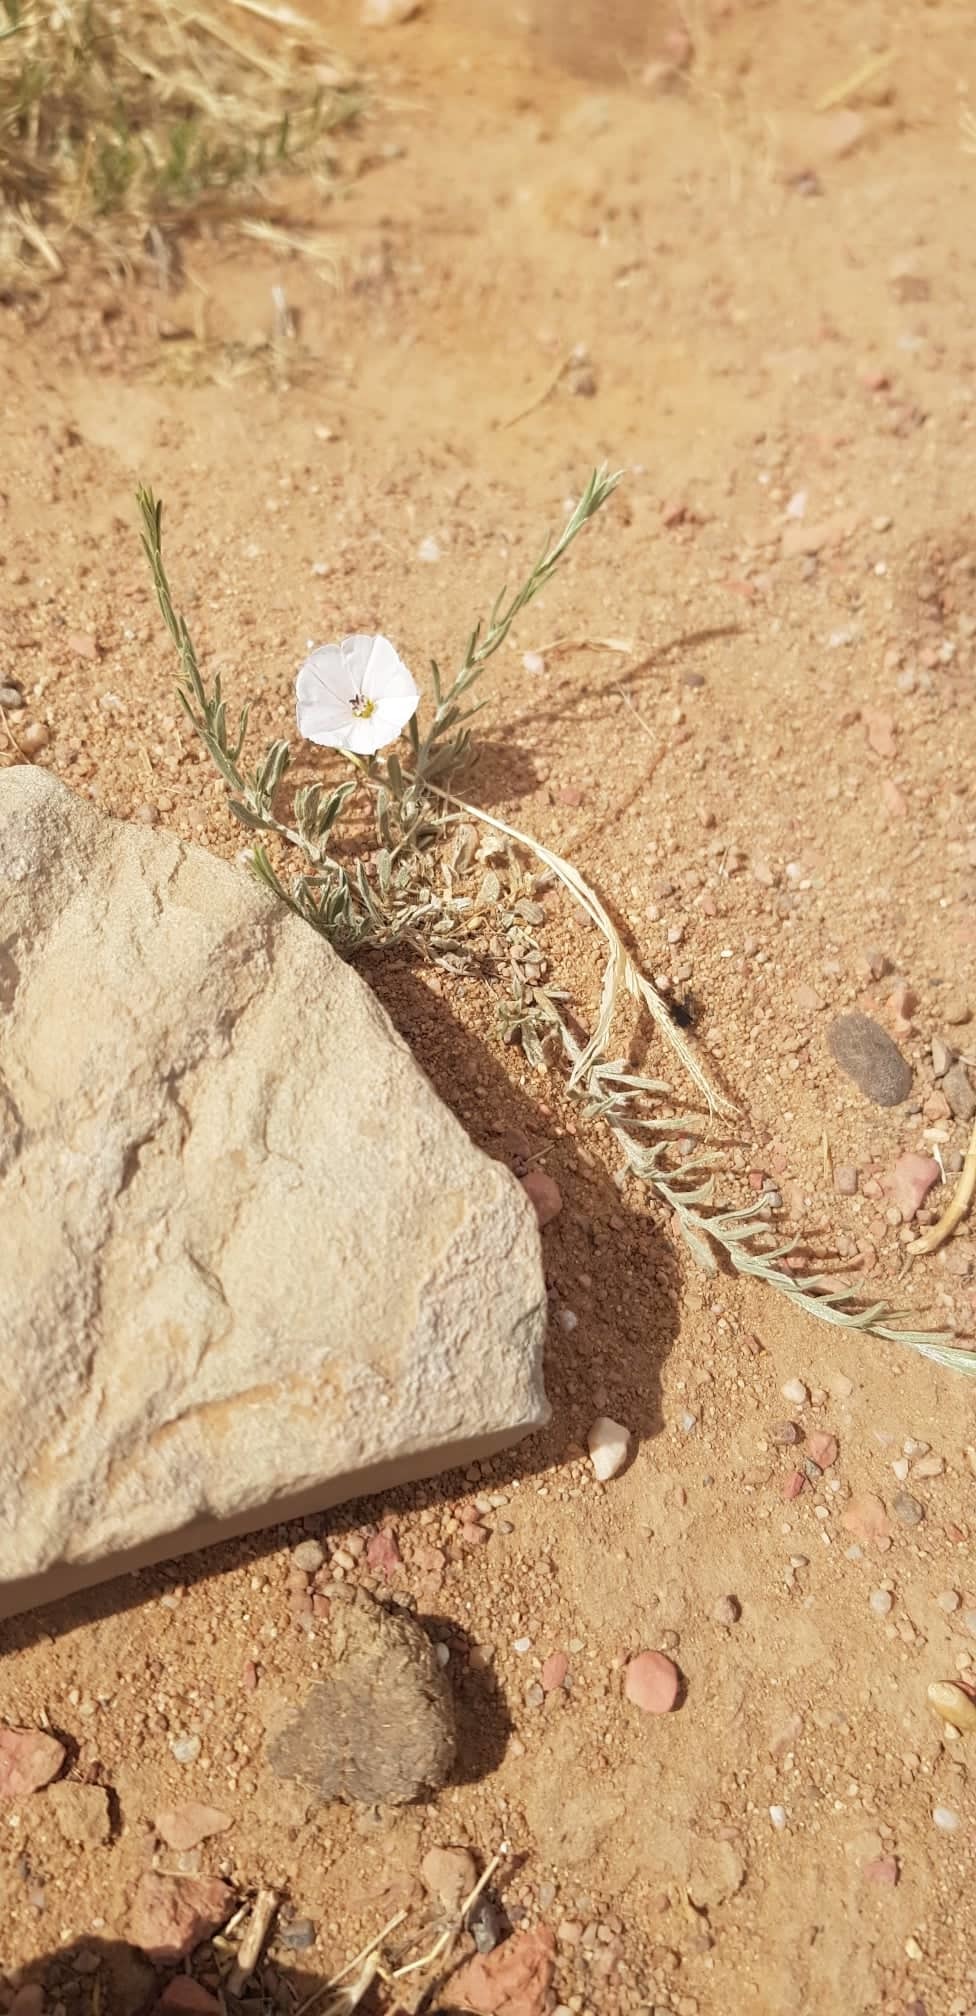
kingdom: Plantae
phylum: Tracheophyta
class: Magnoliopsida
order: Solanales
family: Convolvulaceae
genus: Convolvulus
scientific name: Convolvulus ammannii
